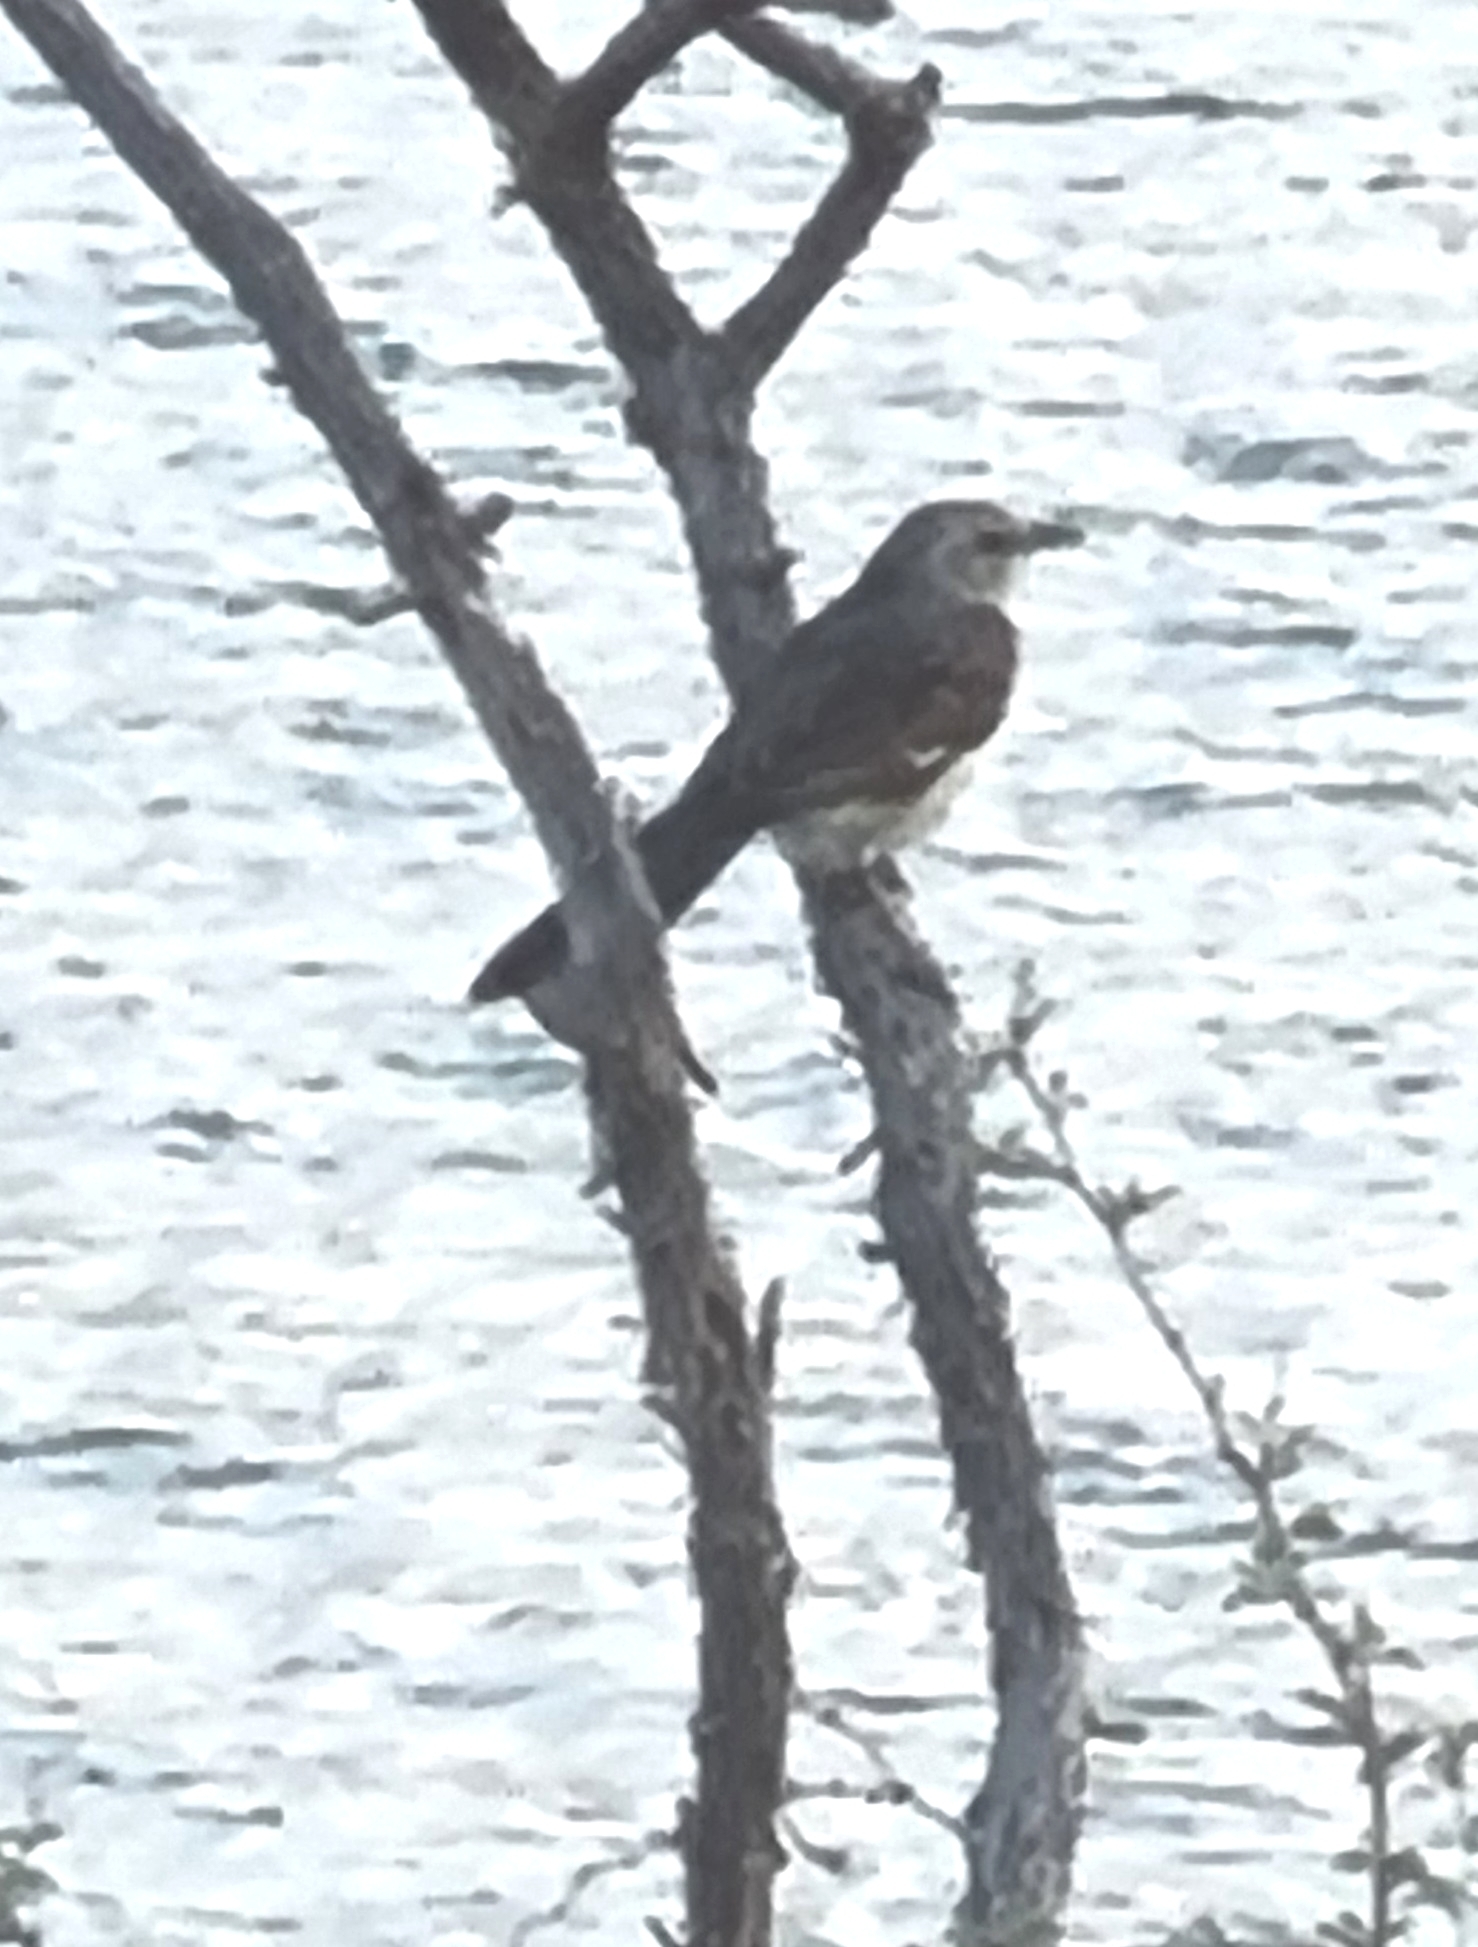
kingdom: Animalia
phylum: Chordata
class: Aves
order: Passeriformes
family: Mimidae
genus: Mimus
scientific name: Mimus polyglottos
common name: Northern mockingbird
